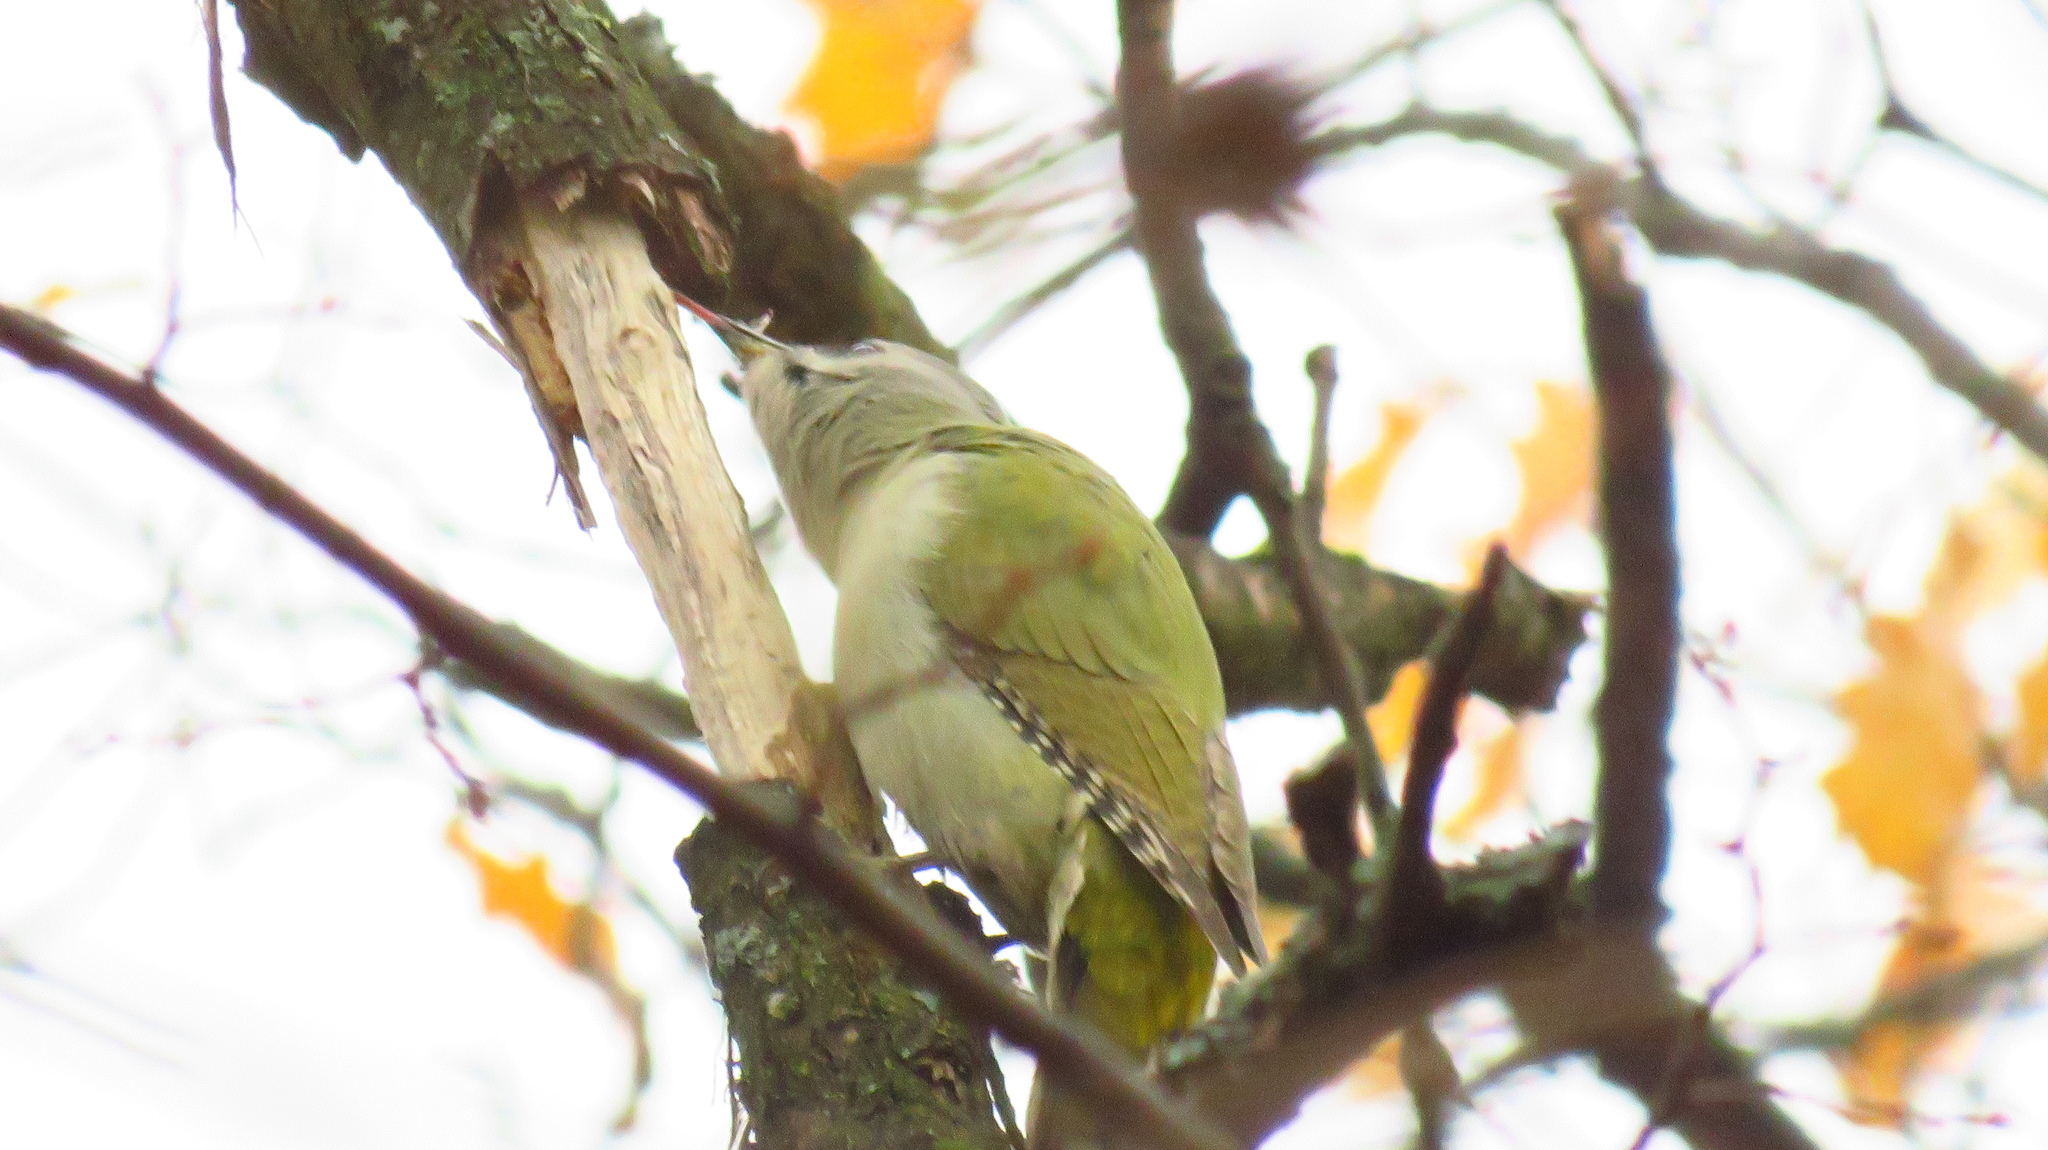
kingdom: Animalia
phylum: Chordata
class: Aves
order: Piciformes
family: Picidae
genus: Picus
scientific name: Picus canus
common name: Grey-headed woodpecker
